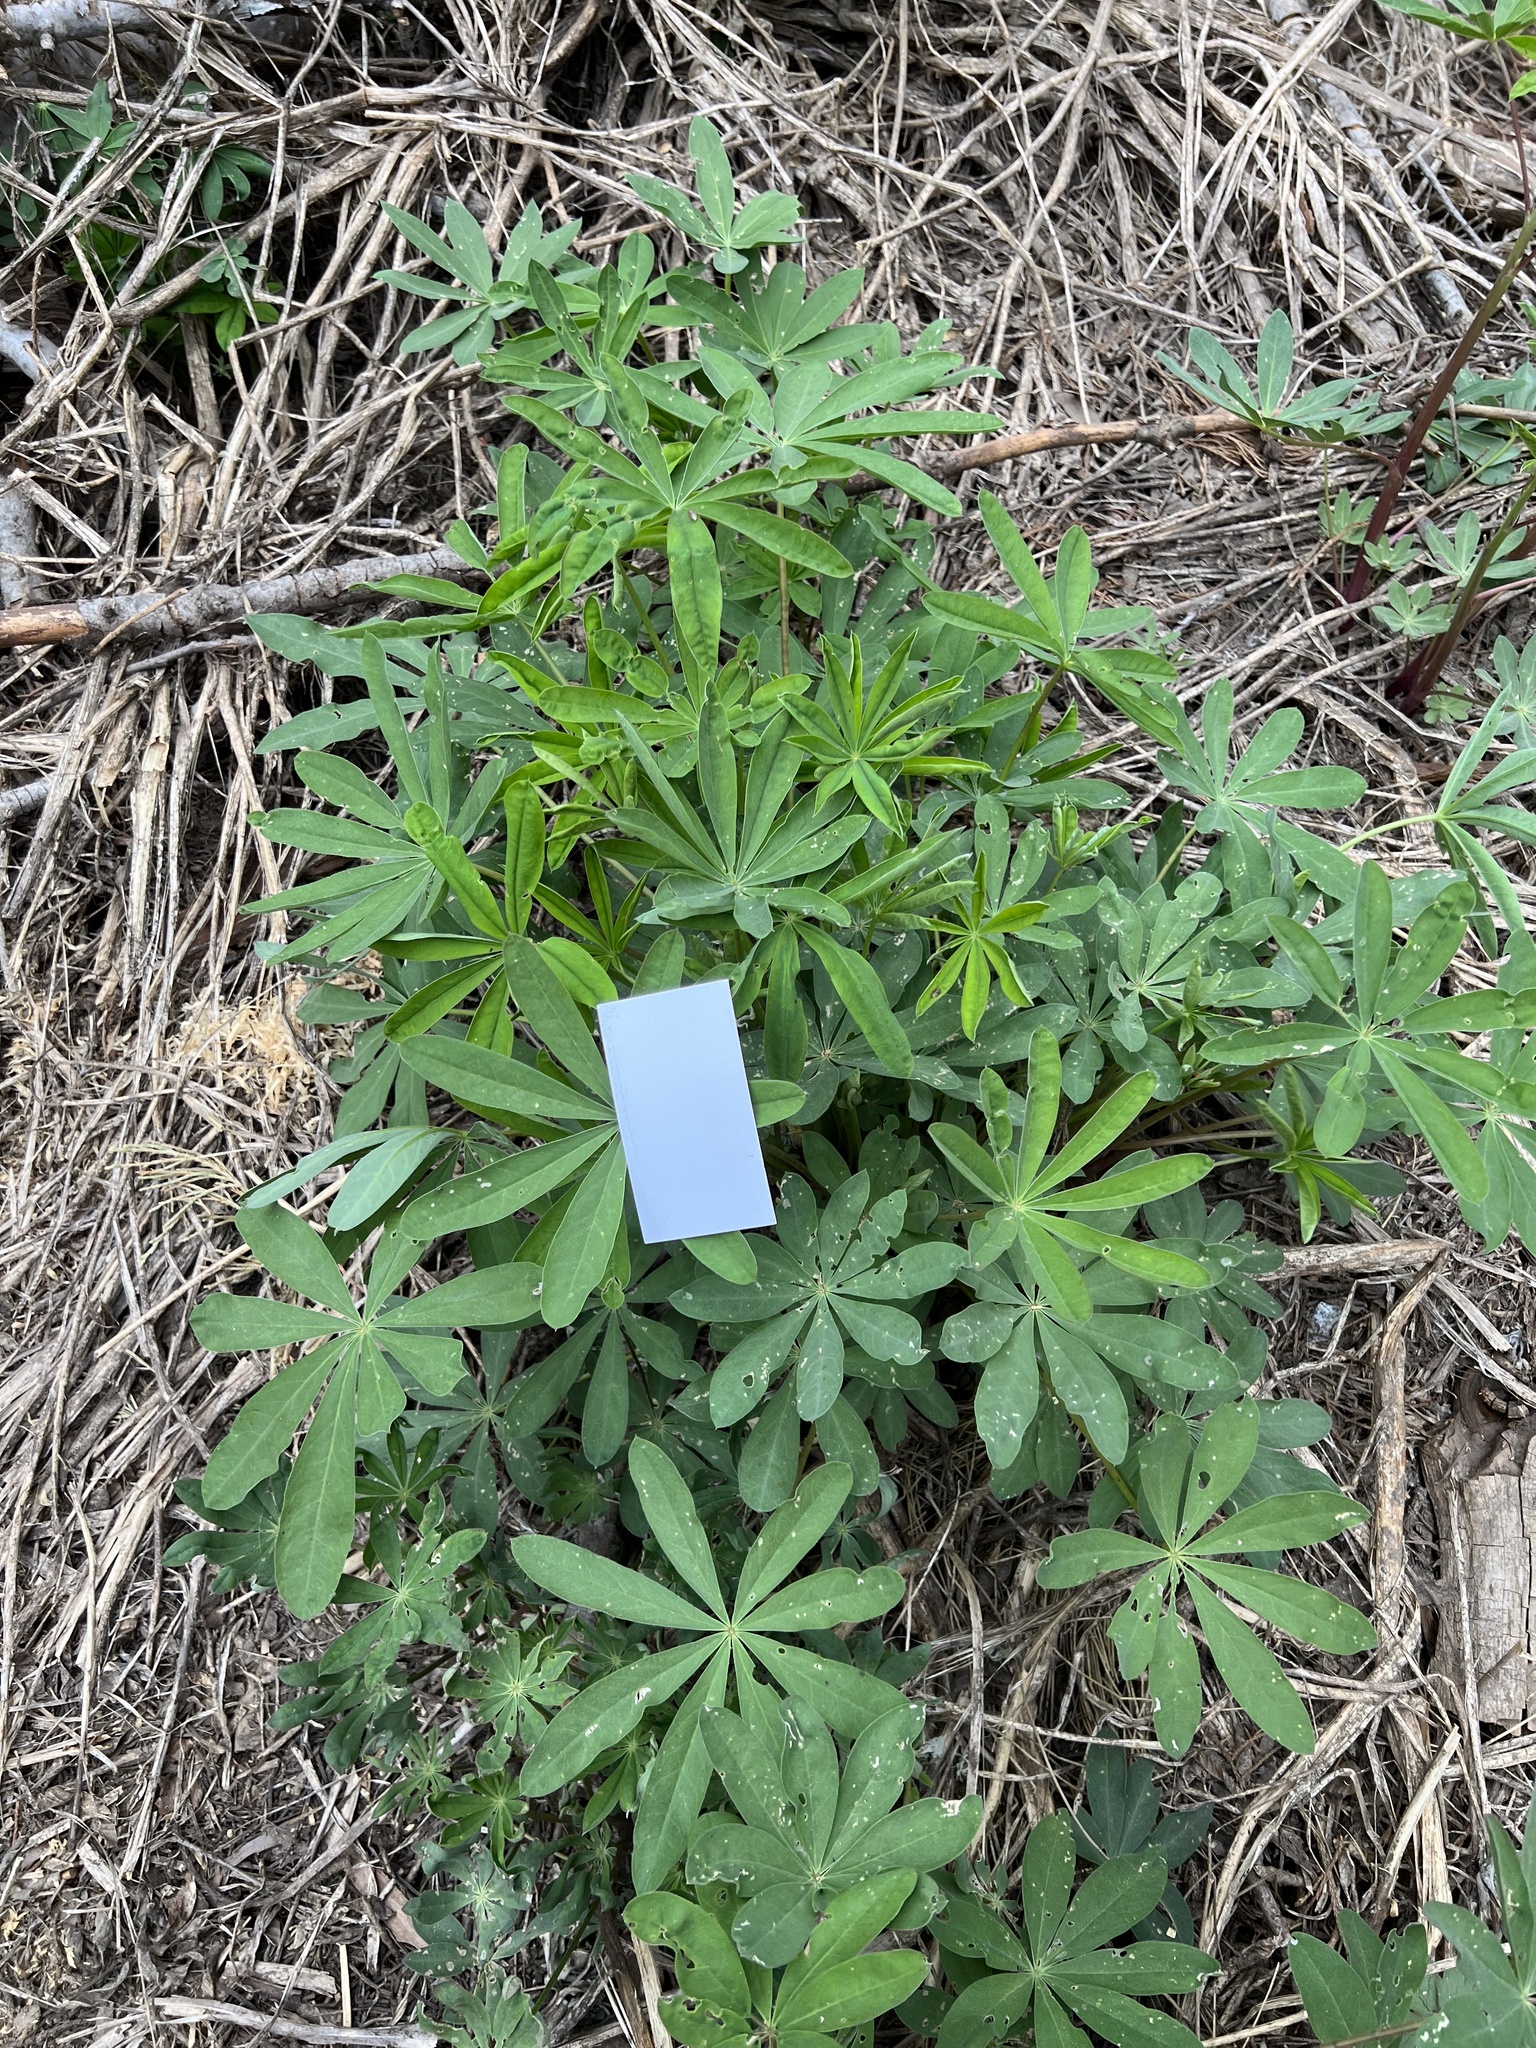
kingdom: Plantae
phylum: Tracheophyta
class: Magnoliopsida
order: Fabales
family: Fabaceae
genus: Lupinus
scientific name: Lupinus polyphyllus
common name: Garden lupin
